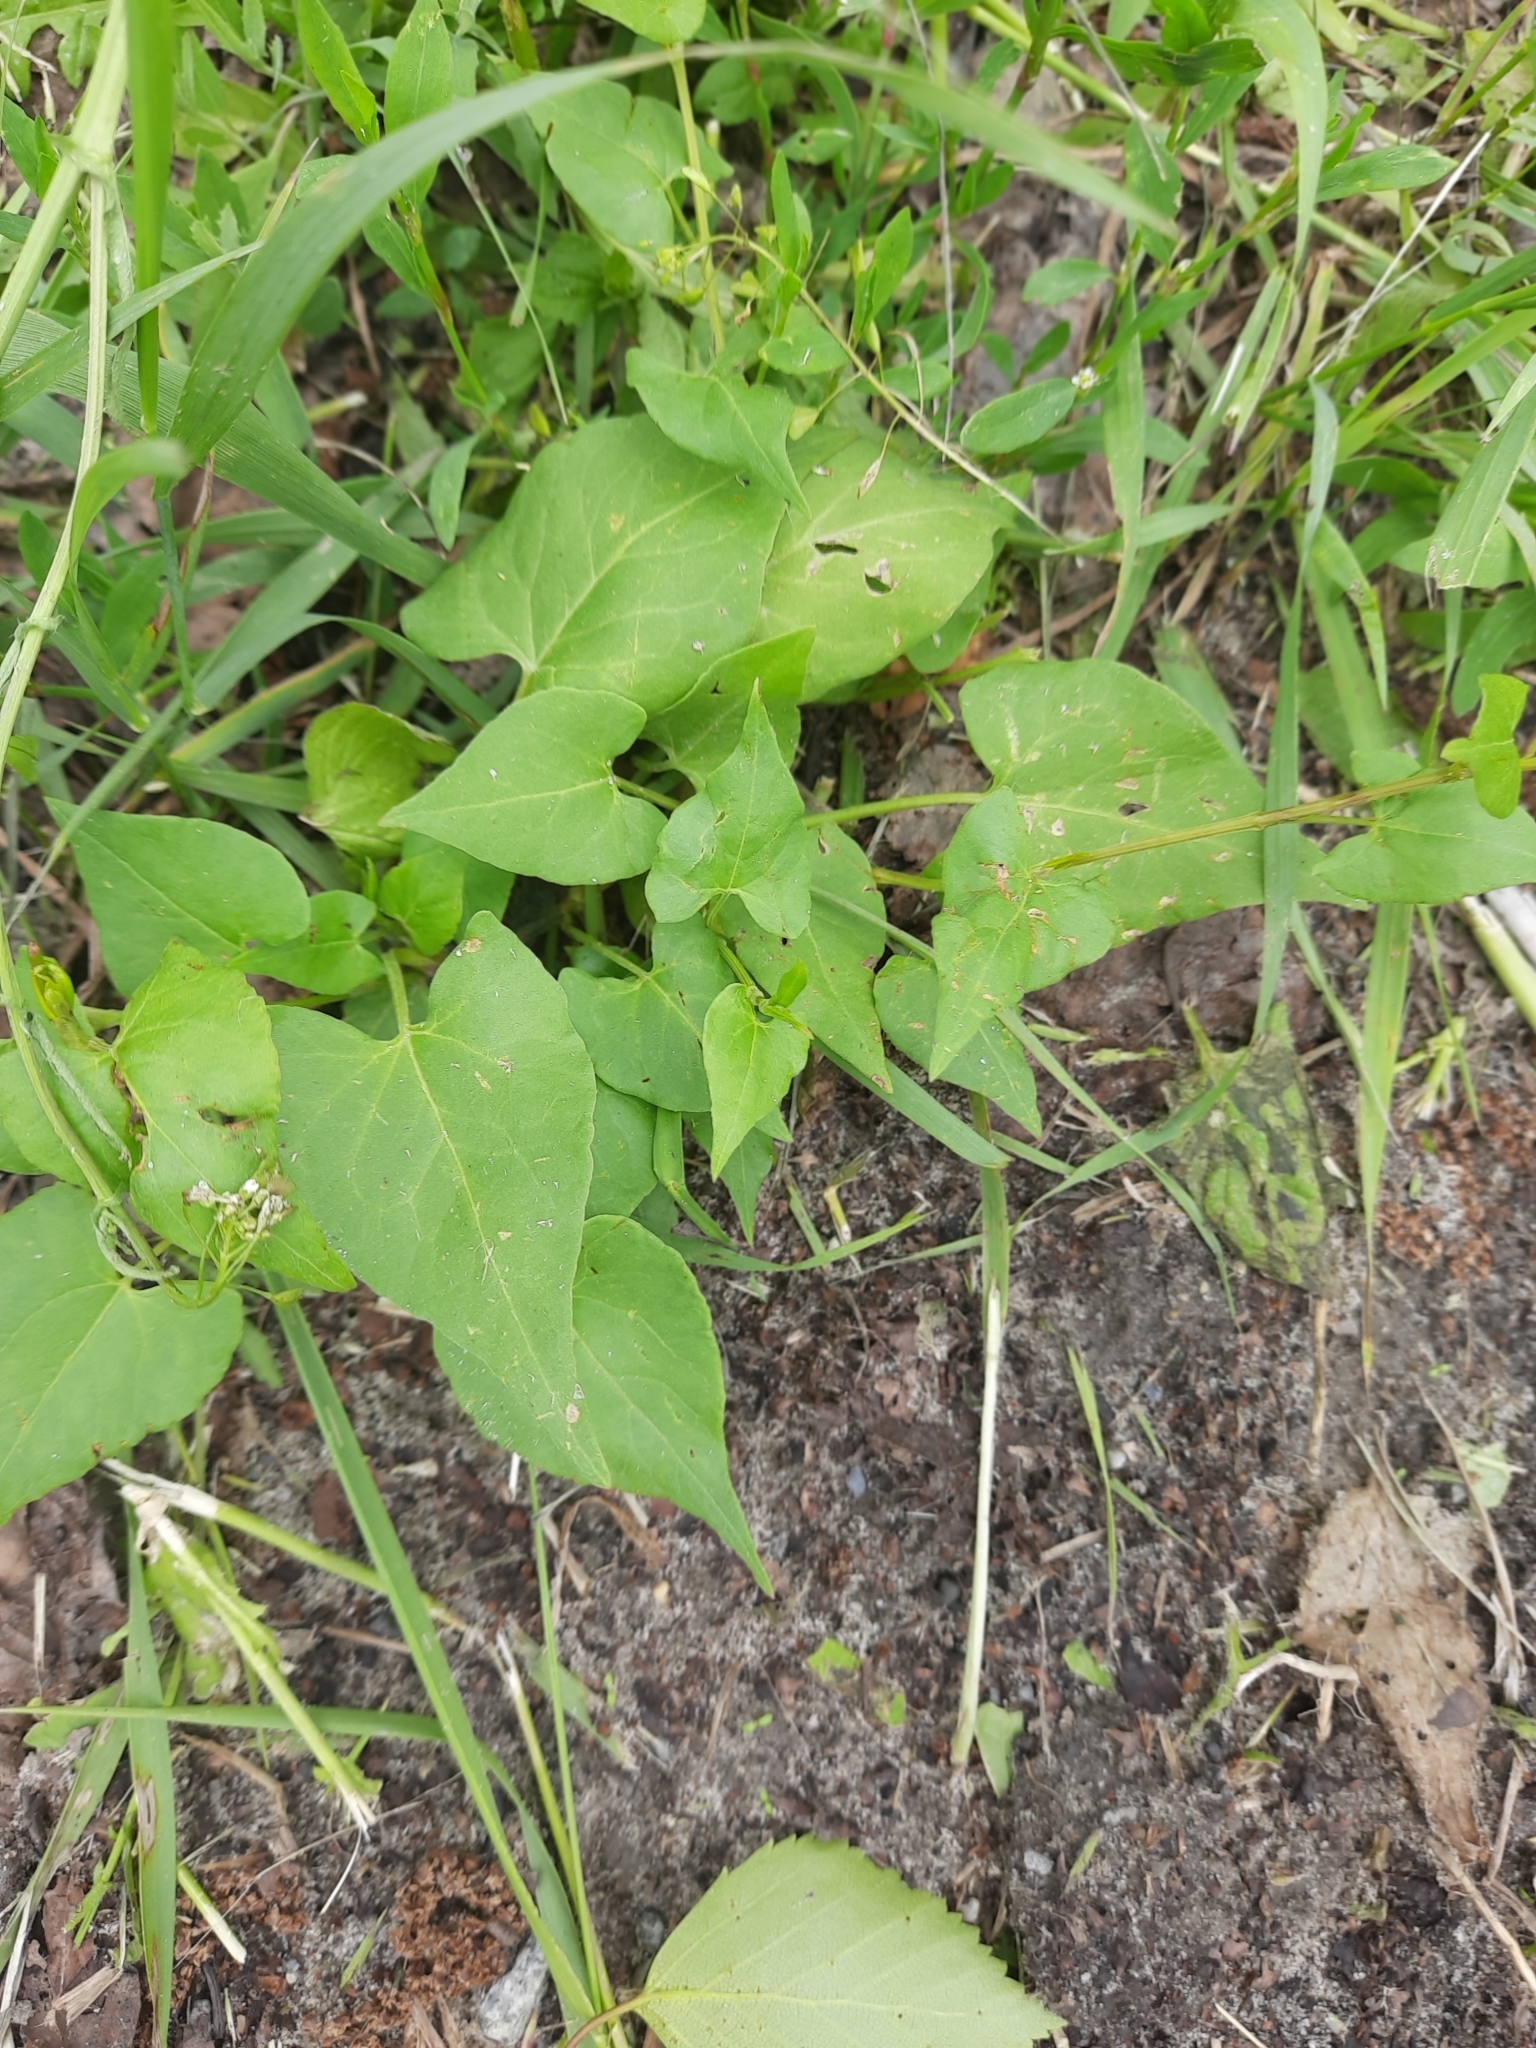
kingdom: Plantae
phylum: Tracheophyta
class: Magnoliopsida
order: Caryophyllales
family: Polygonaceae
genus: Fallopia
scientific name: Fallopia convolvulus
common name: Black bindweed
